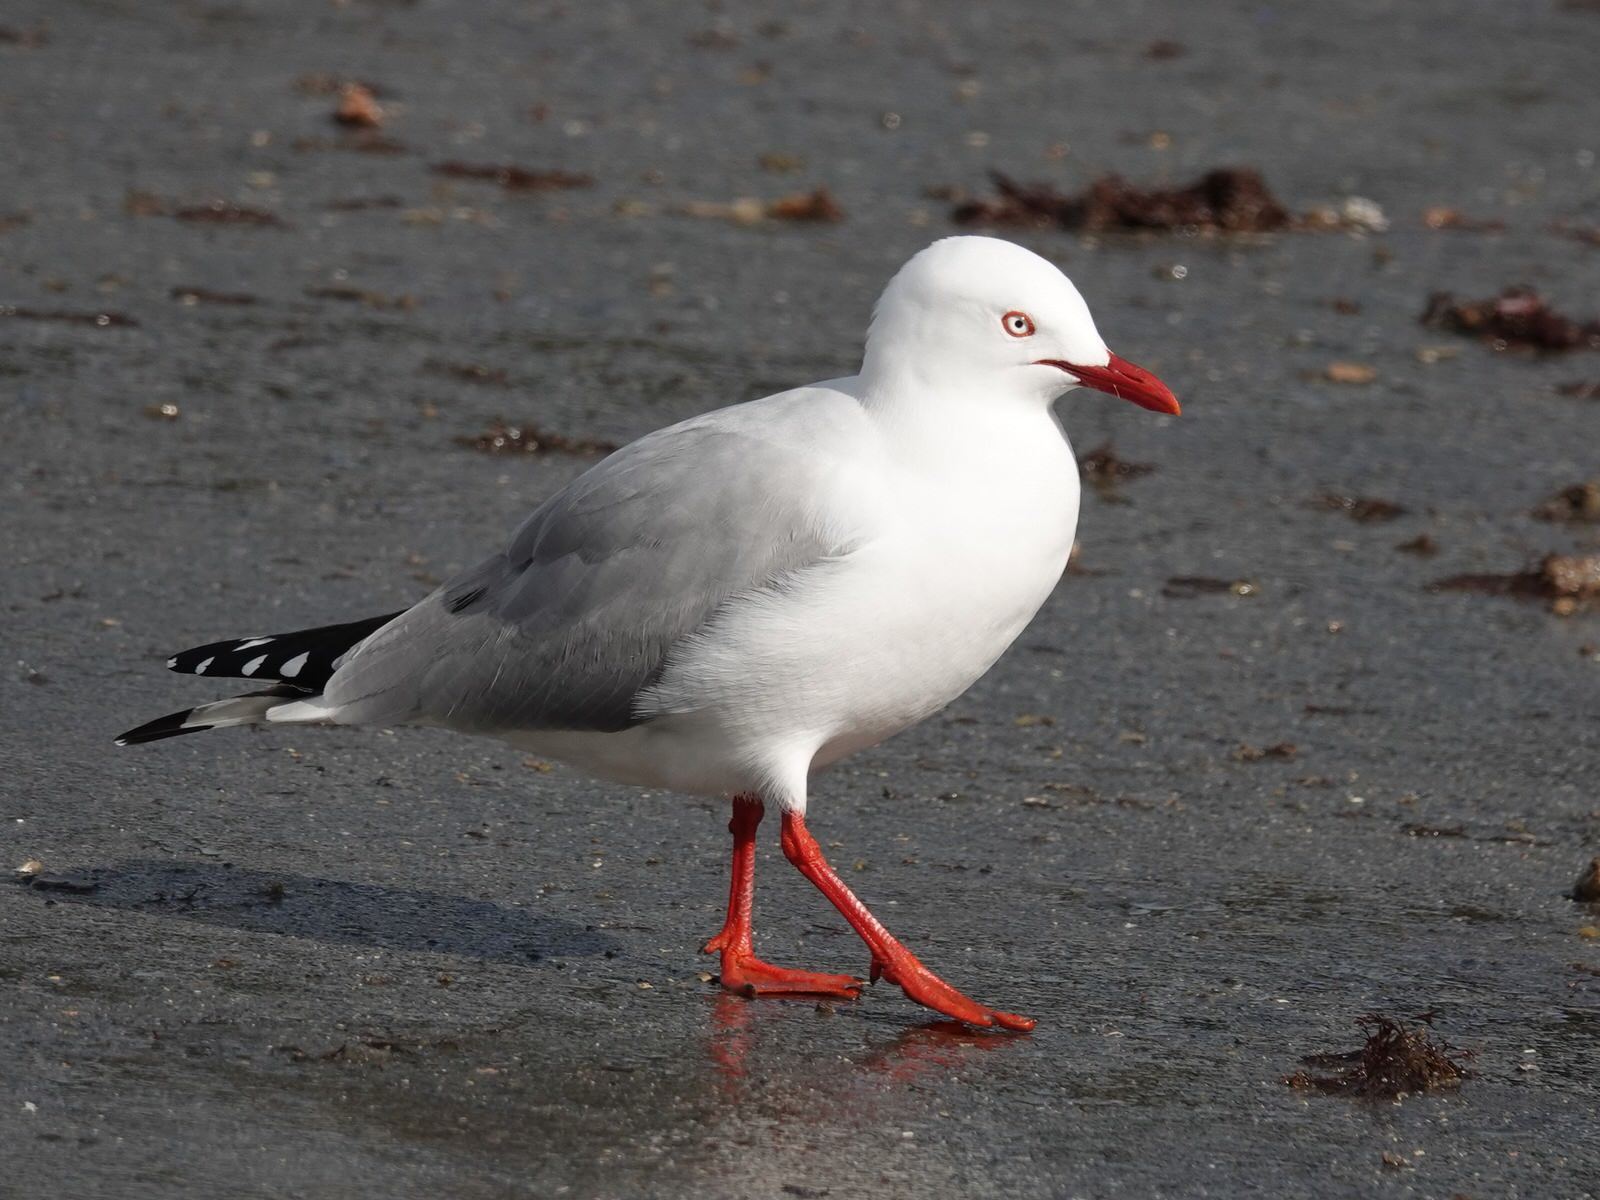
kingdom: Animalia
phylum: Chordata
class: Aves
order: Charadriiformes
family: Laridae
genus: Chroicocephalus
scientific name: Chroicocephalus novaehollandiae
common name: Silver gull
